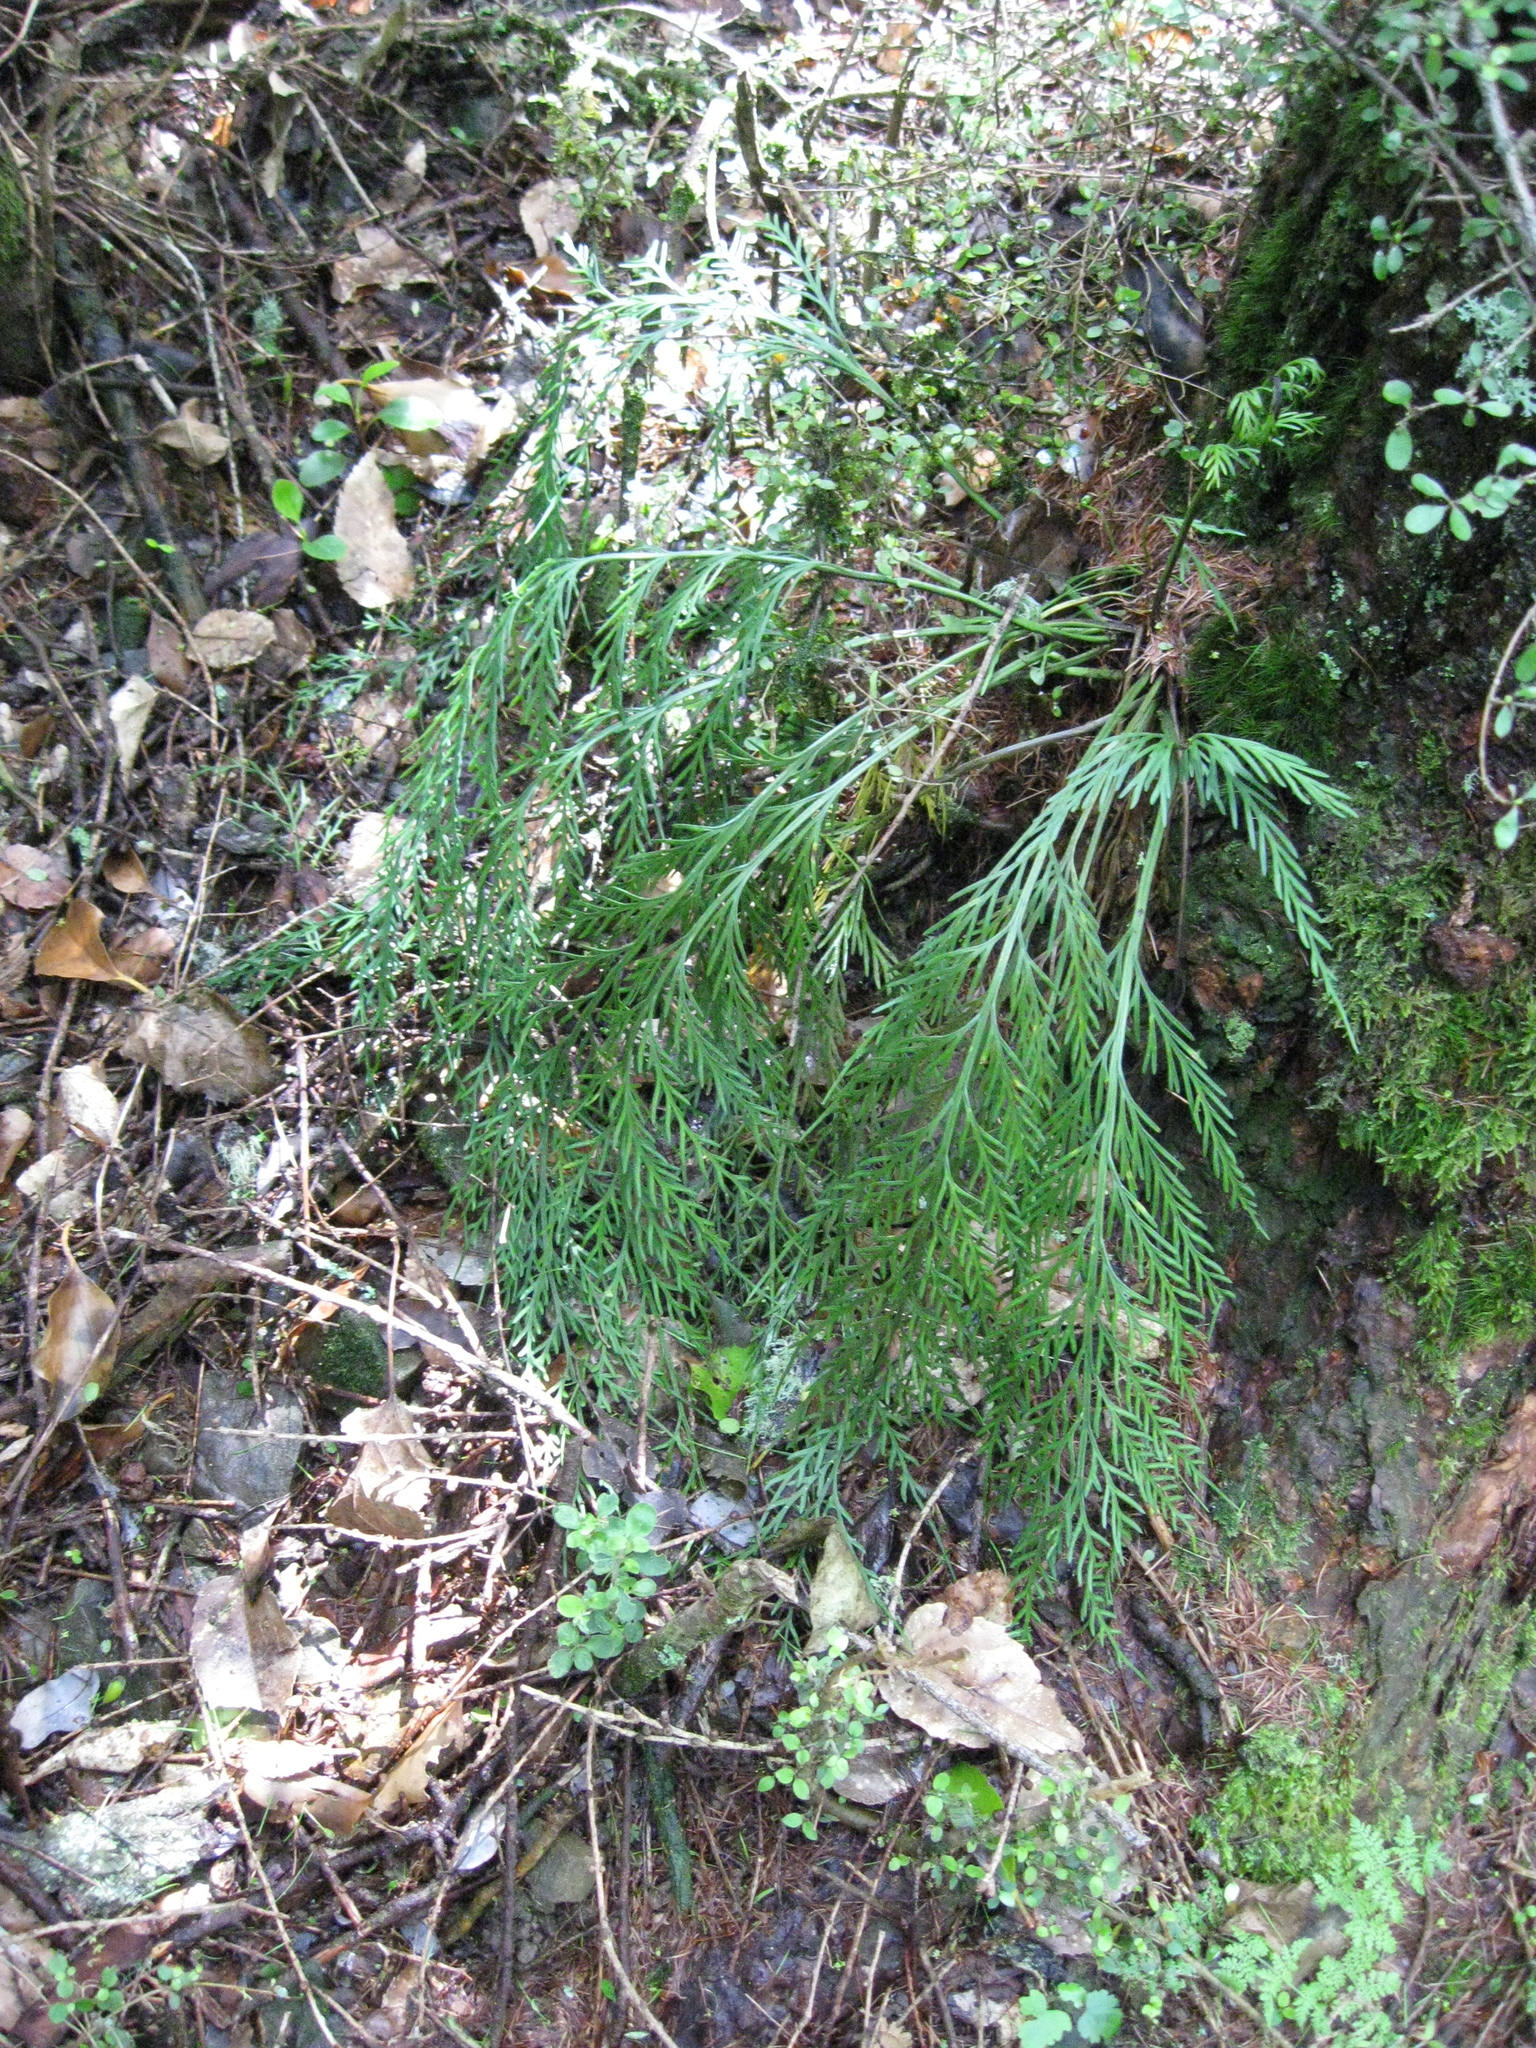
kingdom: Plantae
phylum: Tracheophyta
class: Polypodiopsida
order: Polypodiales
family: Aspleniaceae
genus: Asplenium
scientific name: Asplenium flaccidum
